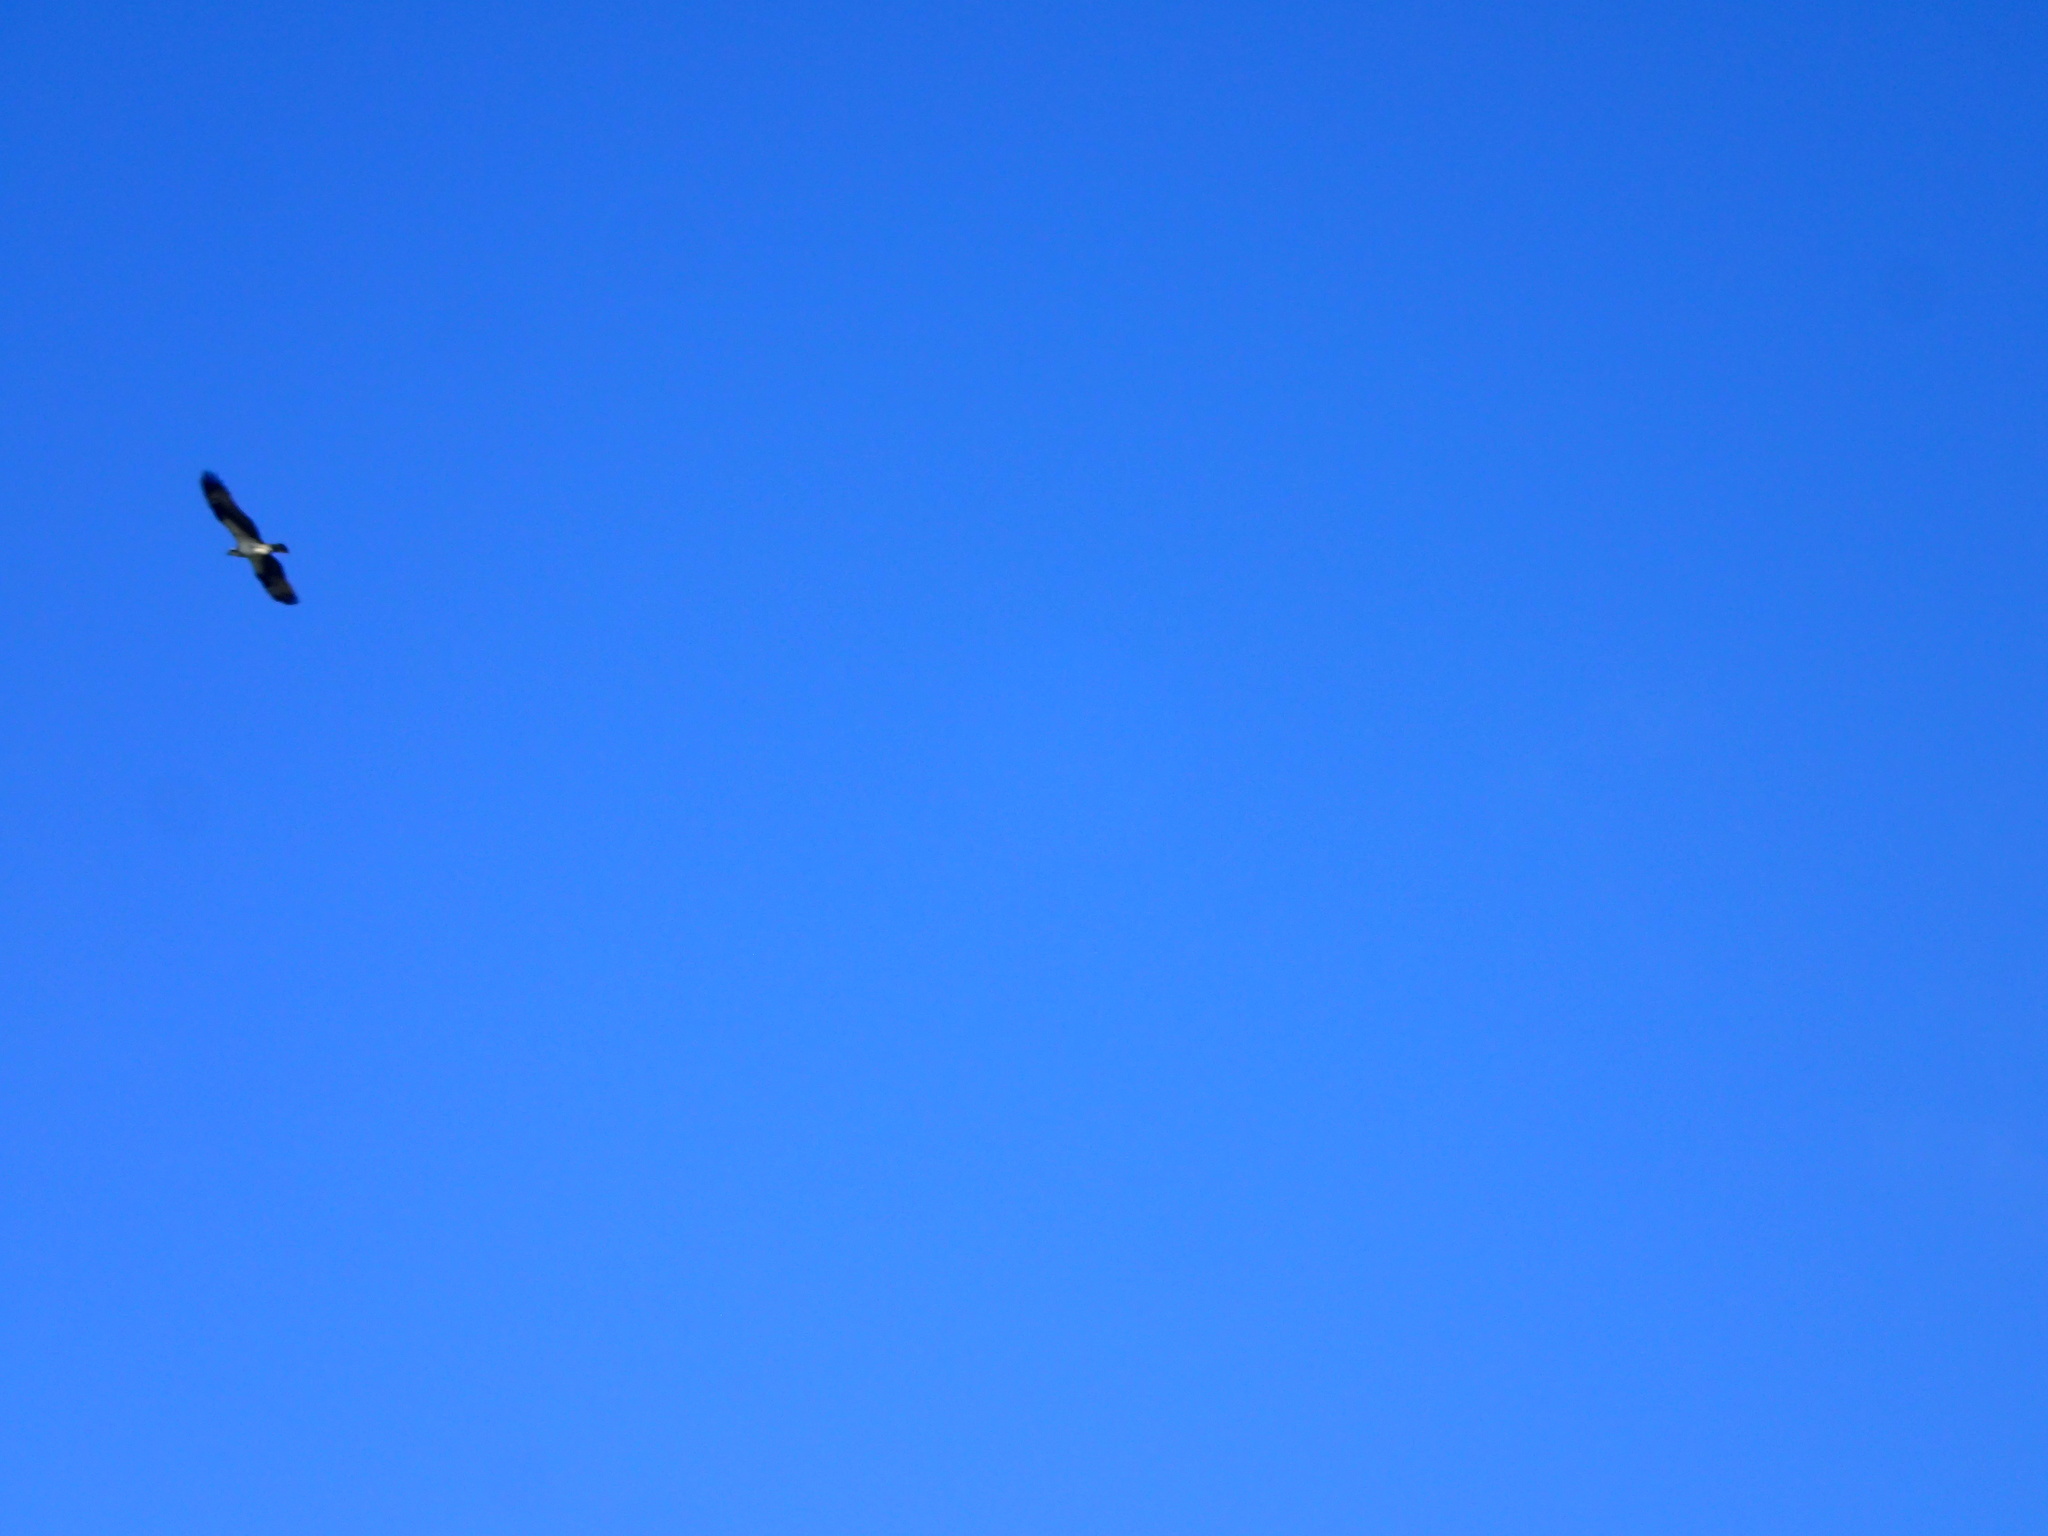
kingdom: Animalia
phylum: Chordata
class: Aves
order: Accipitriformes
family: Pandionidae
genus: Pandion
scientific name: Pandion haliaetus
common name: Osprey
